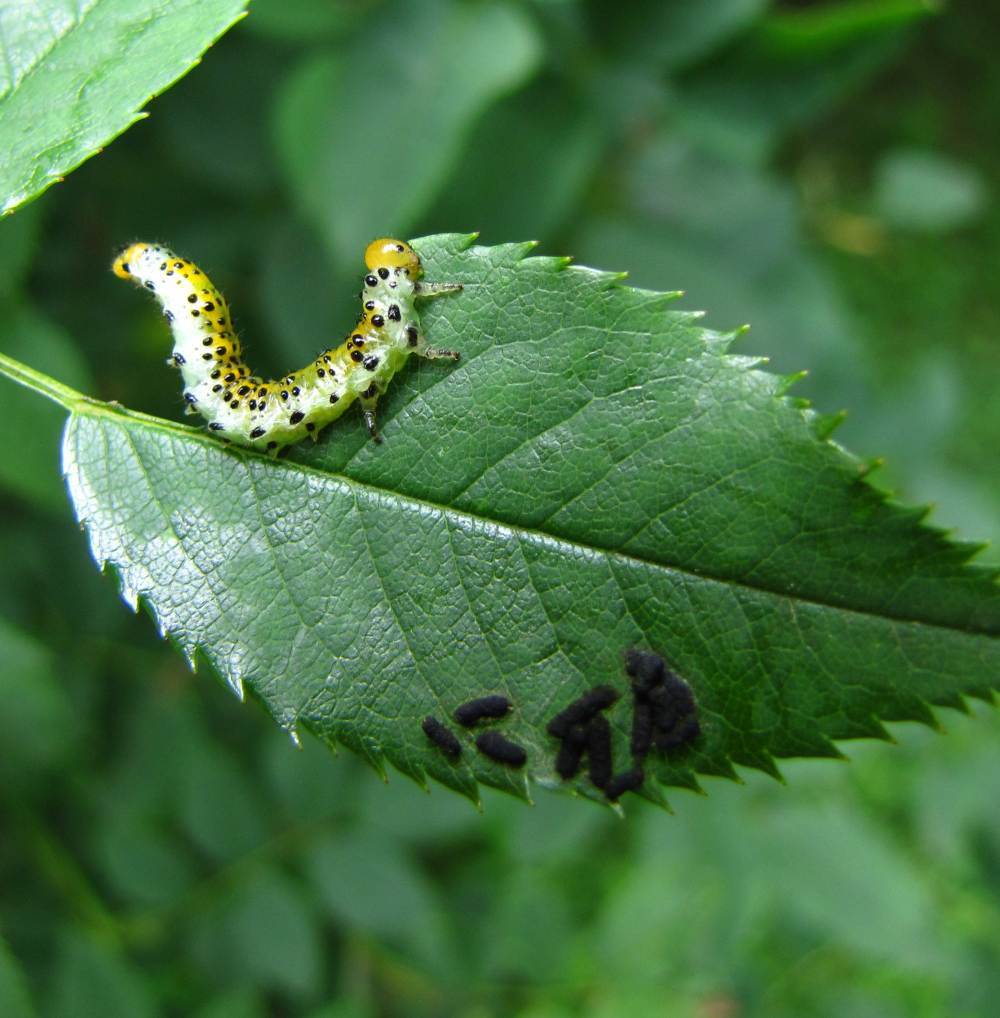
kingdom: Animalia
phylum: Arthropoda
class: Insecta
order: Hymenoptera
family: Argidae
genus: Arge
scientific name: Arge ochropus
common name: Argid sawfly
